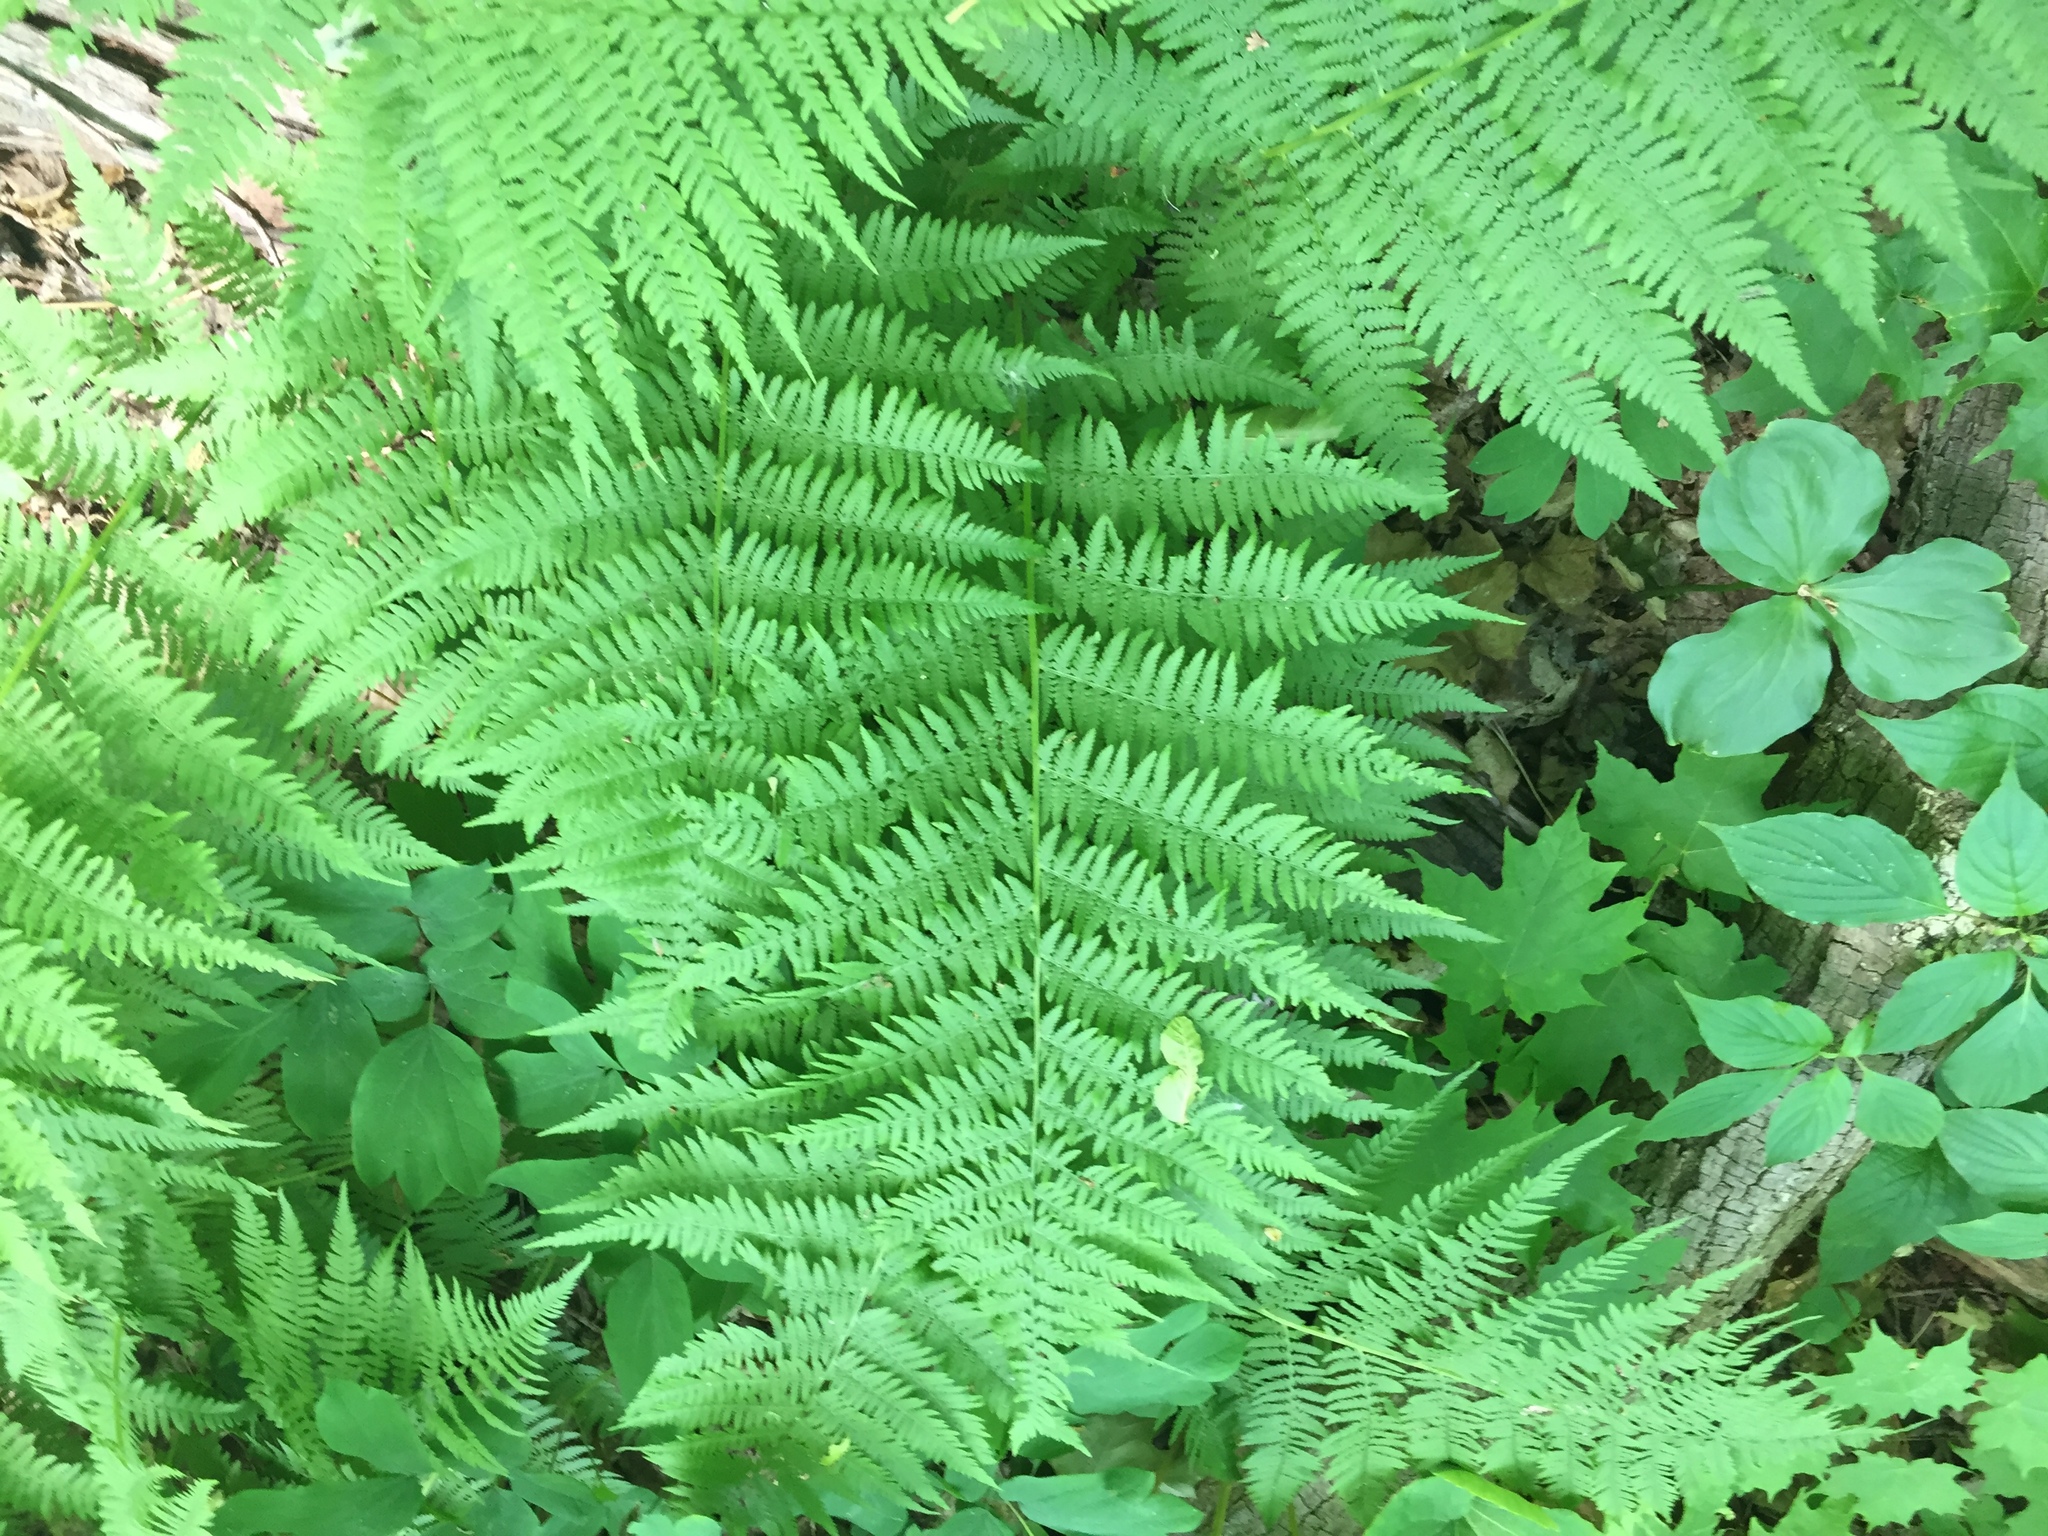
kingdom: Plantae
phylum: Tracheophyta
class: Polypodiopsida
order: Polypodiales
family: Athyriaceae
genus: Athyrium
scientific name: Athyrium angustum
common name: Northern lady fern
